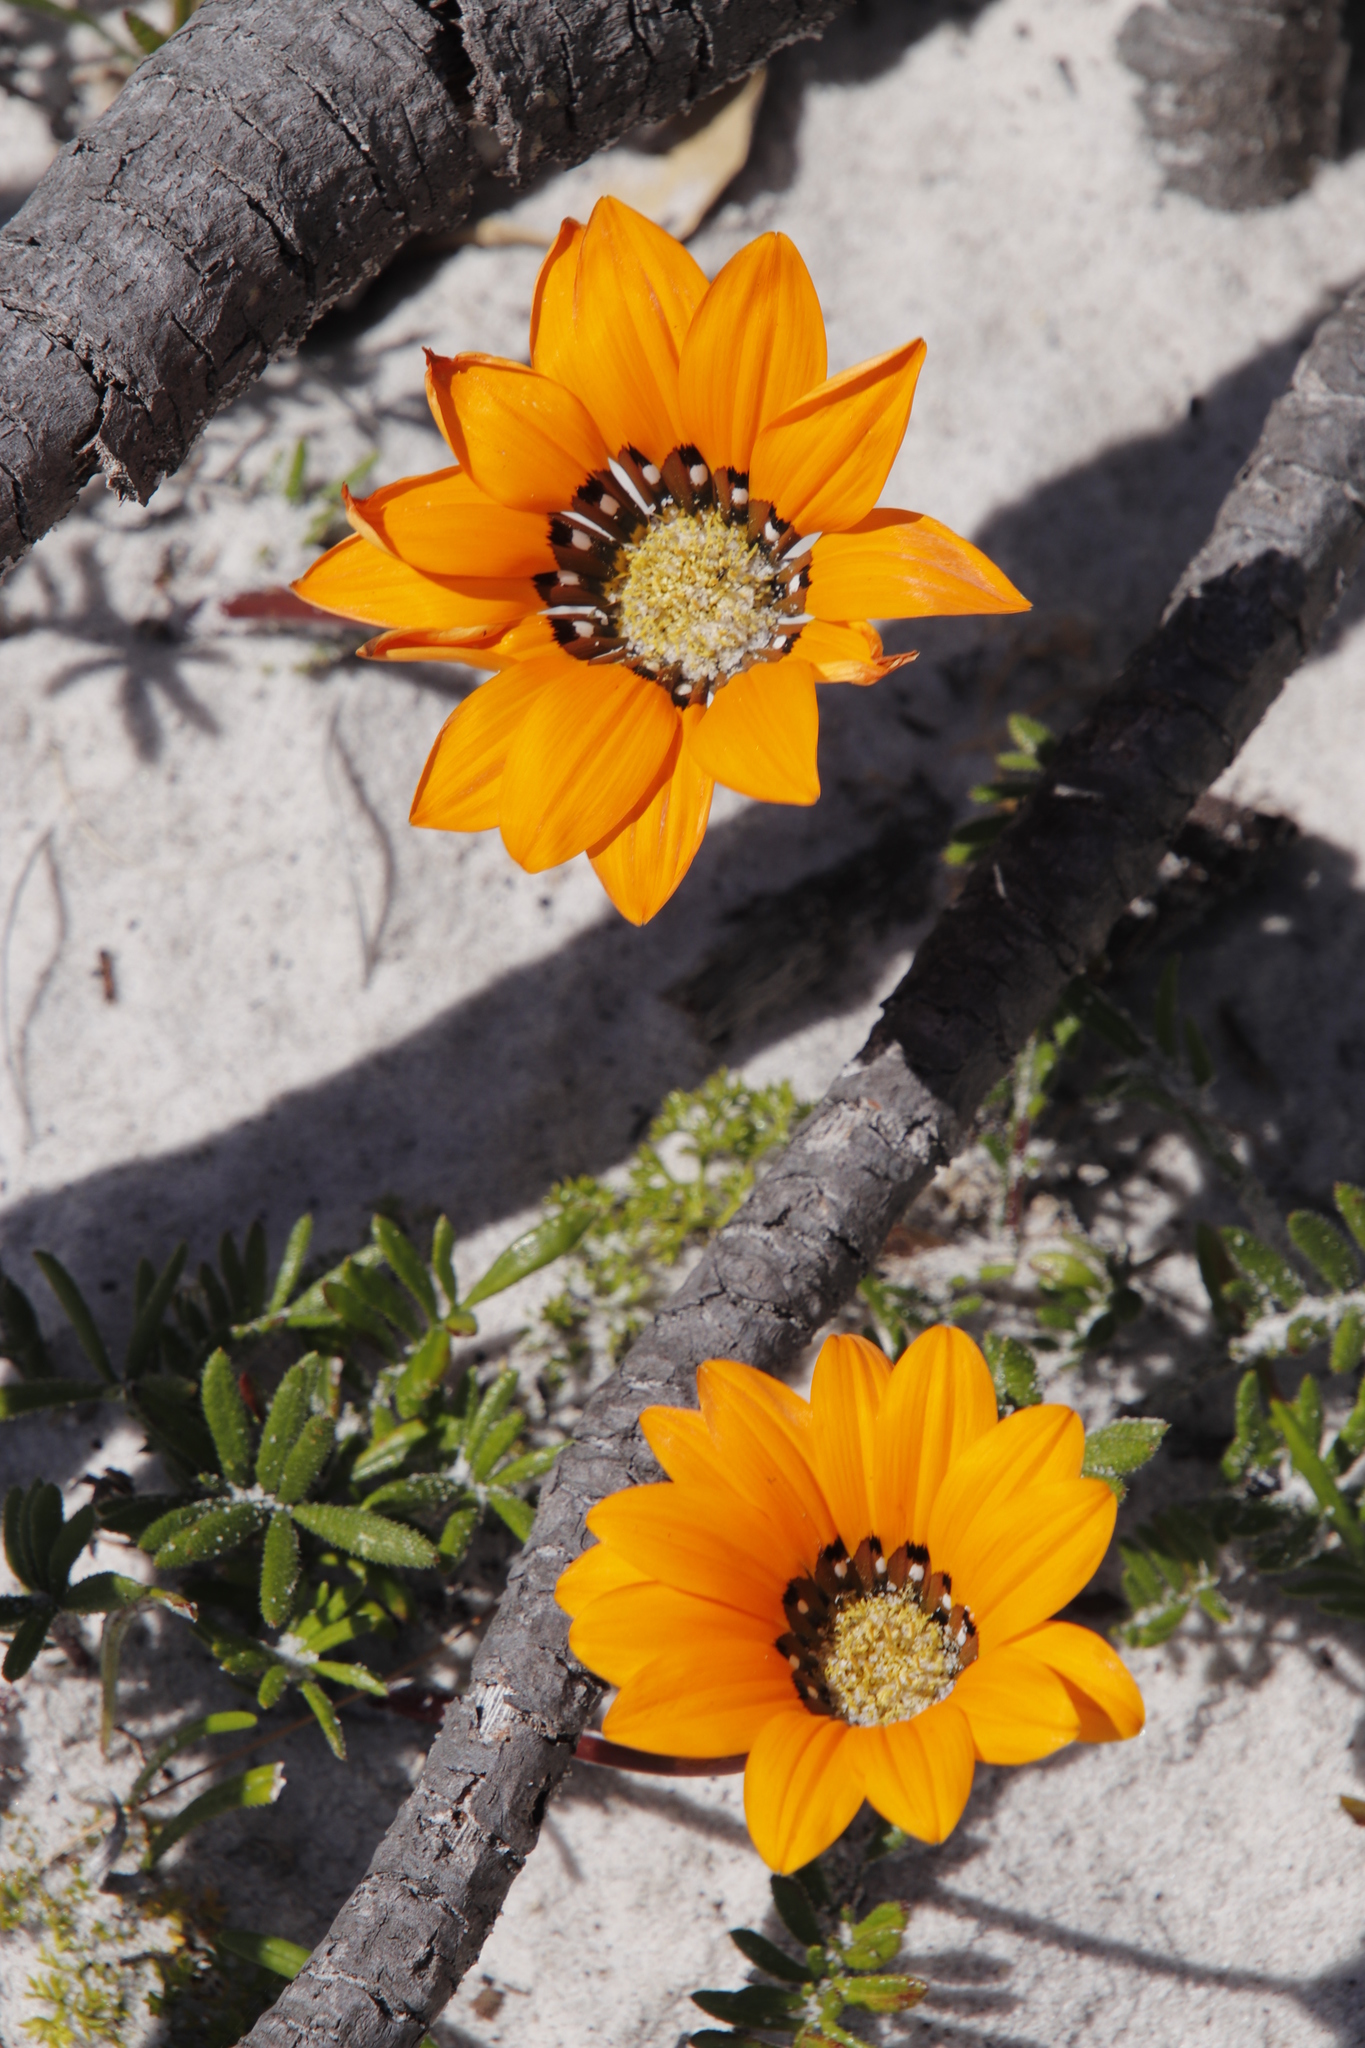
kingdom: Plantae
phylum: Tracheophyta
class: Magnoliopsida
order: Asterales
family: Asteraceae
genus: Gazania
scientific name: Gazania pectinata
